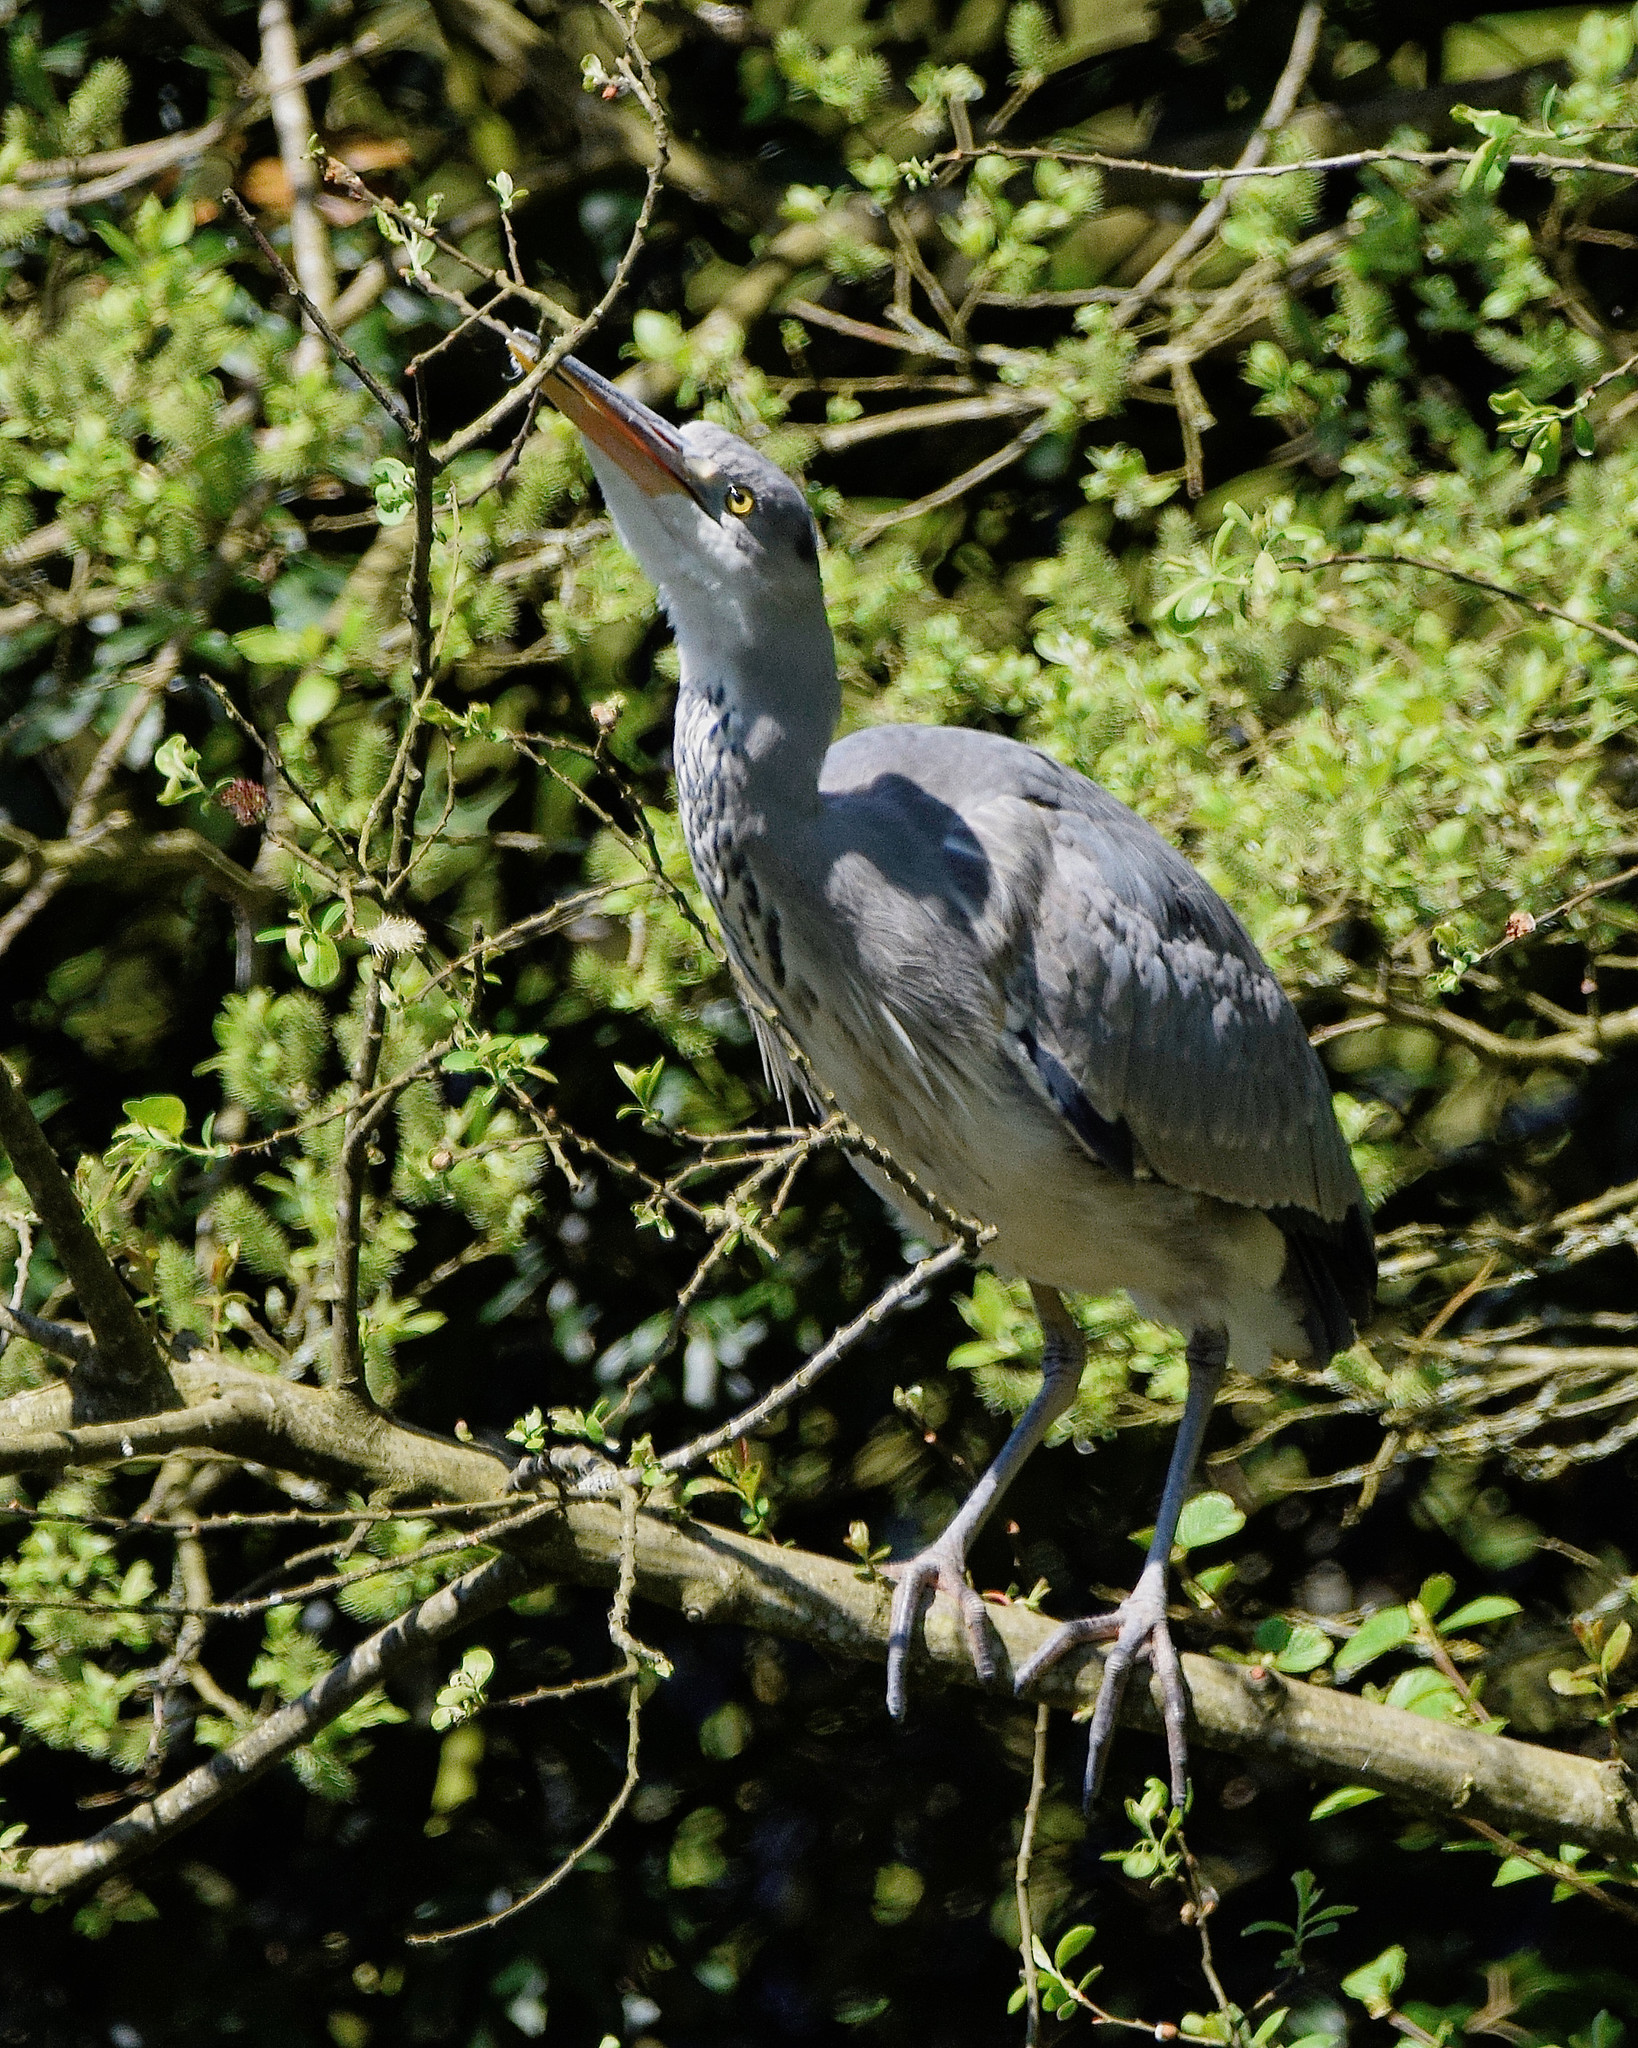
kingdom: Animalia
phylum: Chordata
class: Aves
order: Pelecaniformes
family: Ardeidae
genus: Ardea
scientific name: Ardea cinerea
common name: Grey heron
